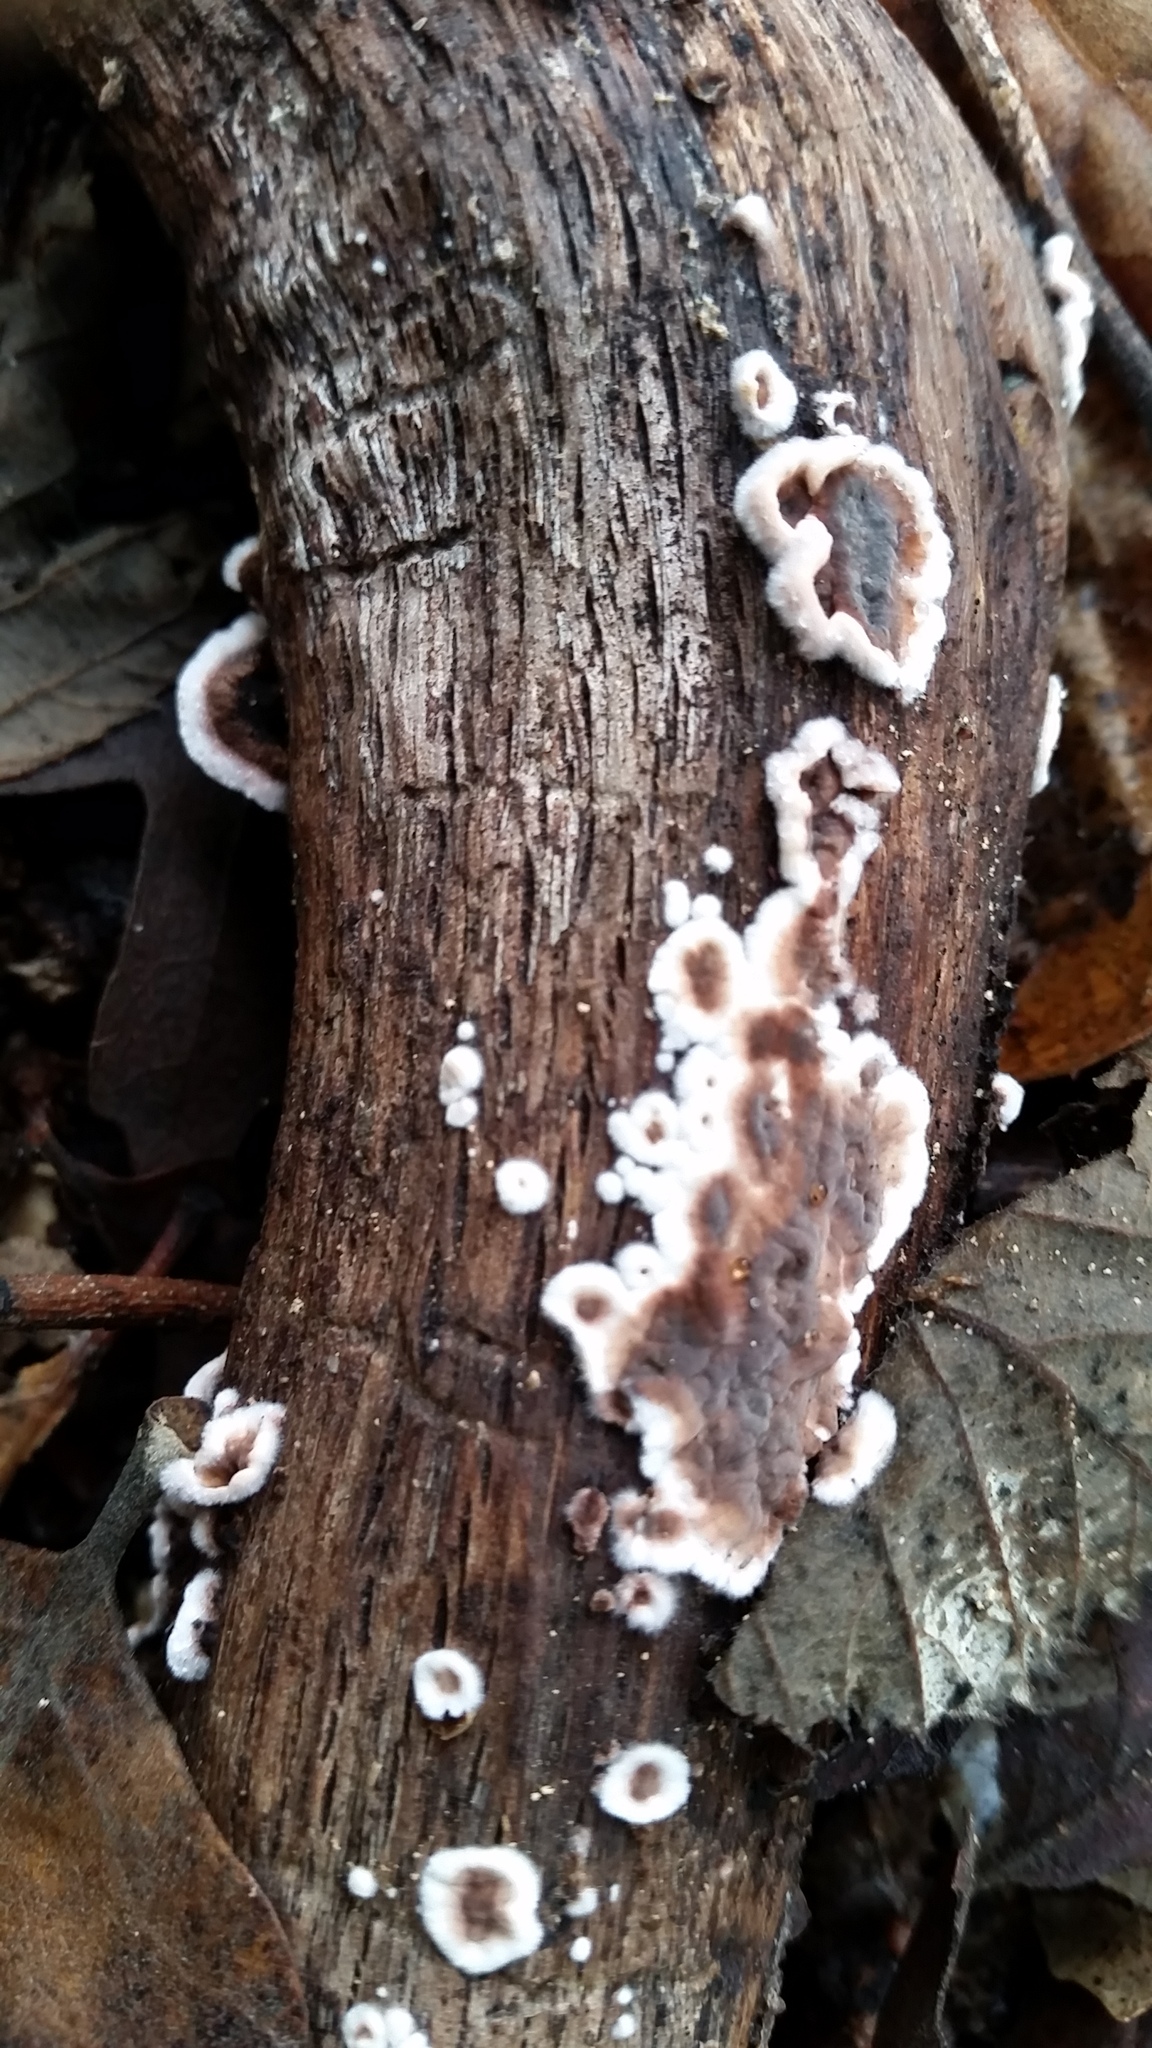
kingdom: Fungi
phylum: Basidiomycota
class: Agaricomycetes
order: Russulales
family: Peniophoraceae
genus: Peniophora
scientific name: Peniophora albobadia
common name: Giraffe spots
